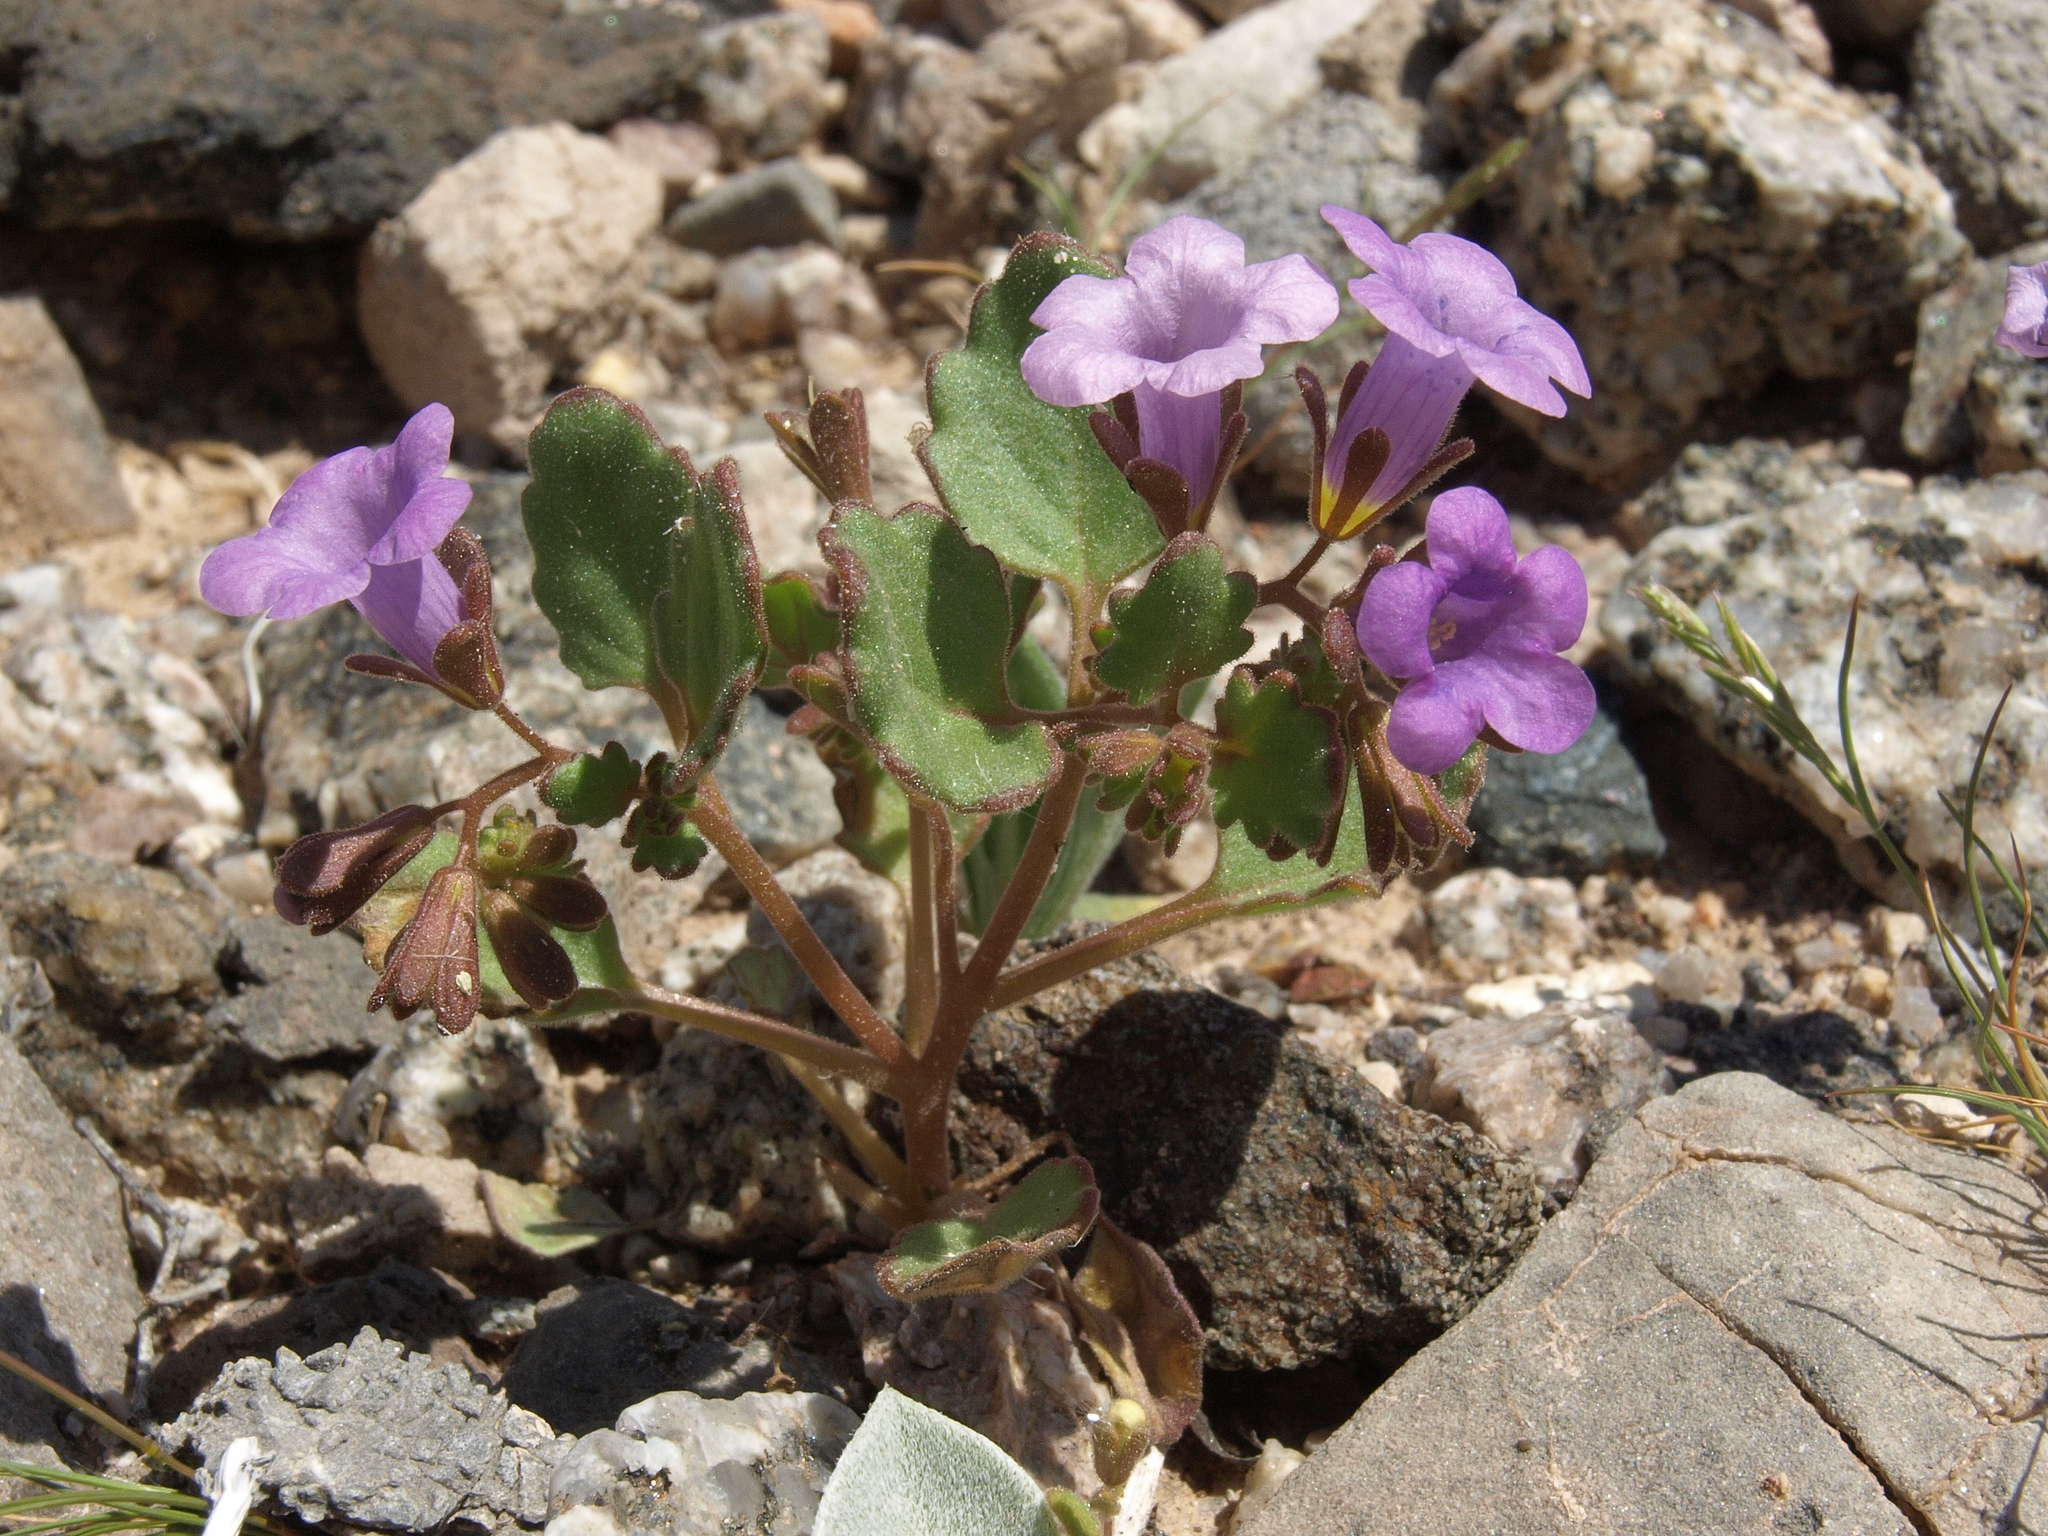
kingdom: Plantae
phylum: Tracheophyta
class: Magnoliopsida
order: Boraginales
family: Hydrophyllaceae
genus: Phacelia
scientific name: Phacelia pulchella
